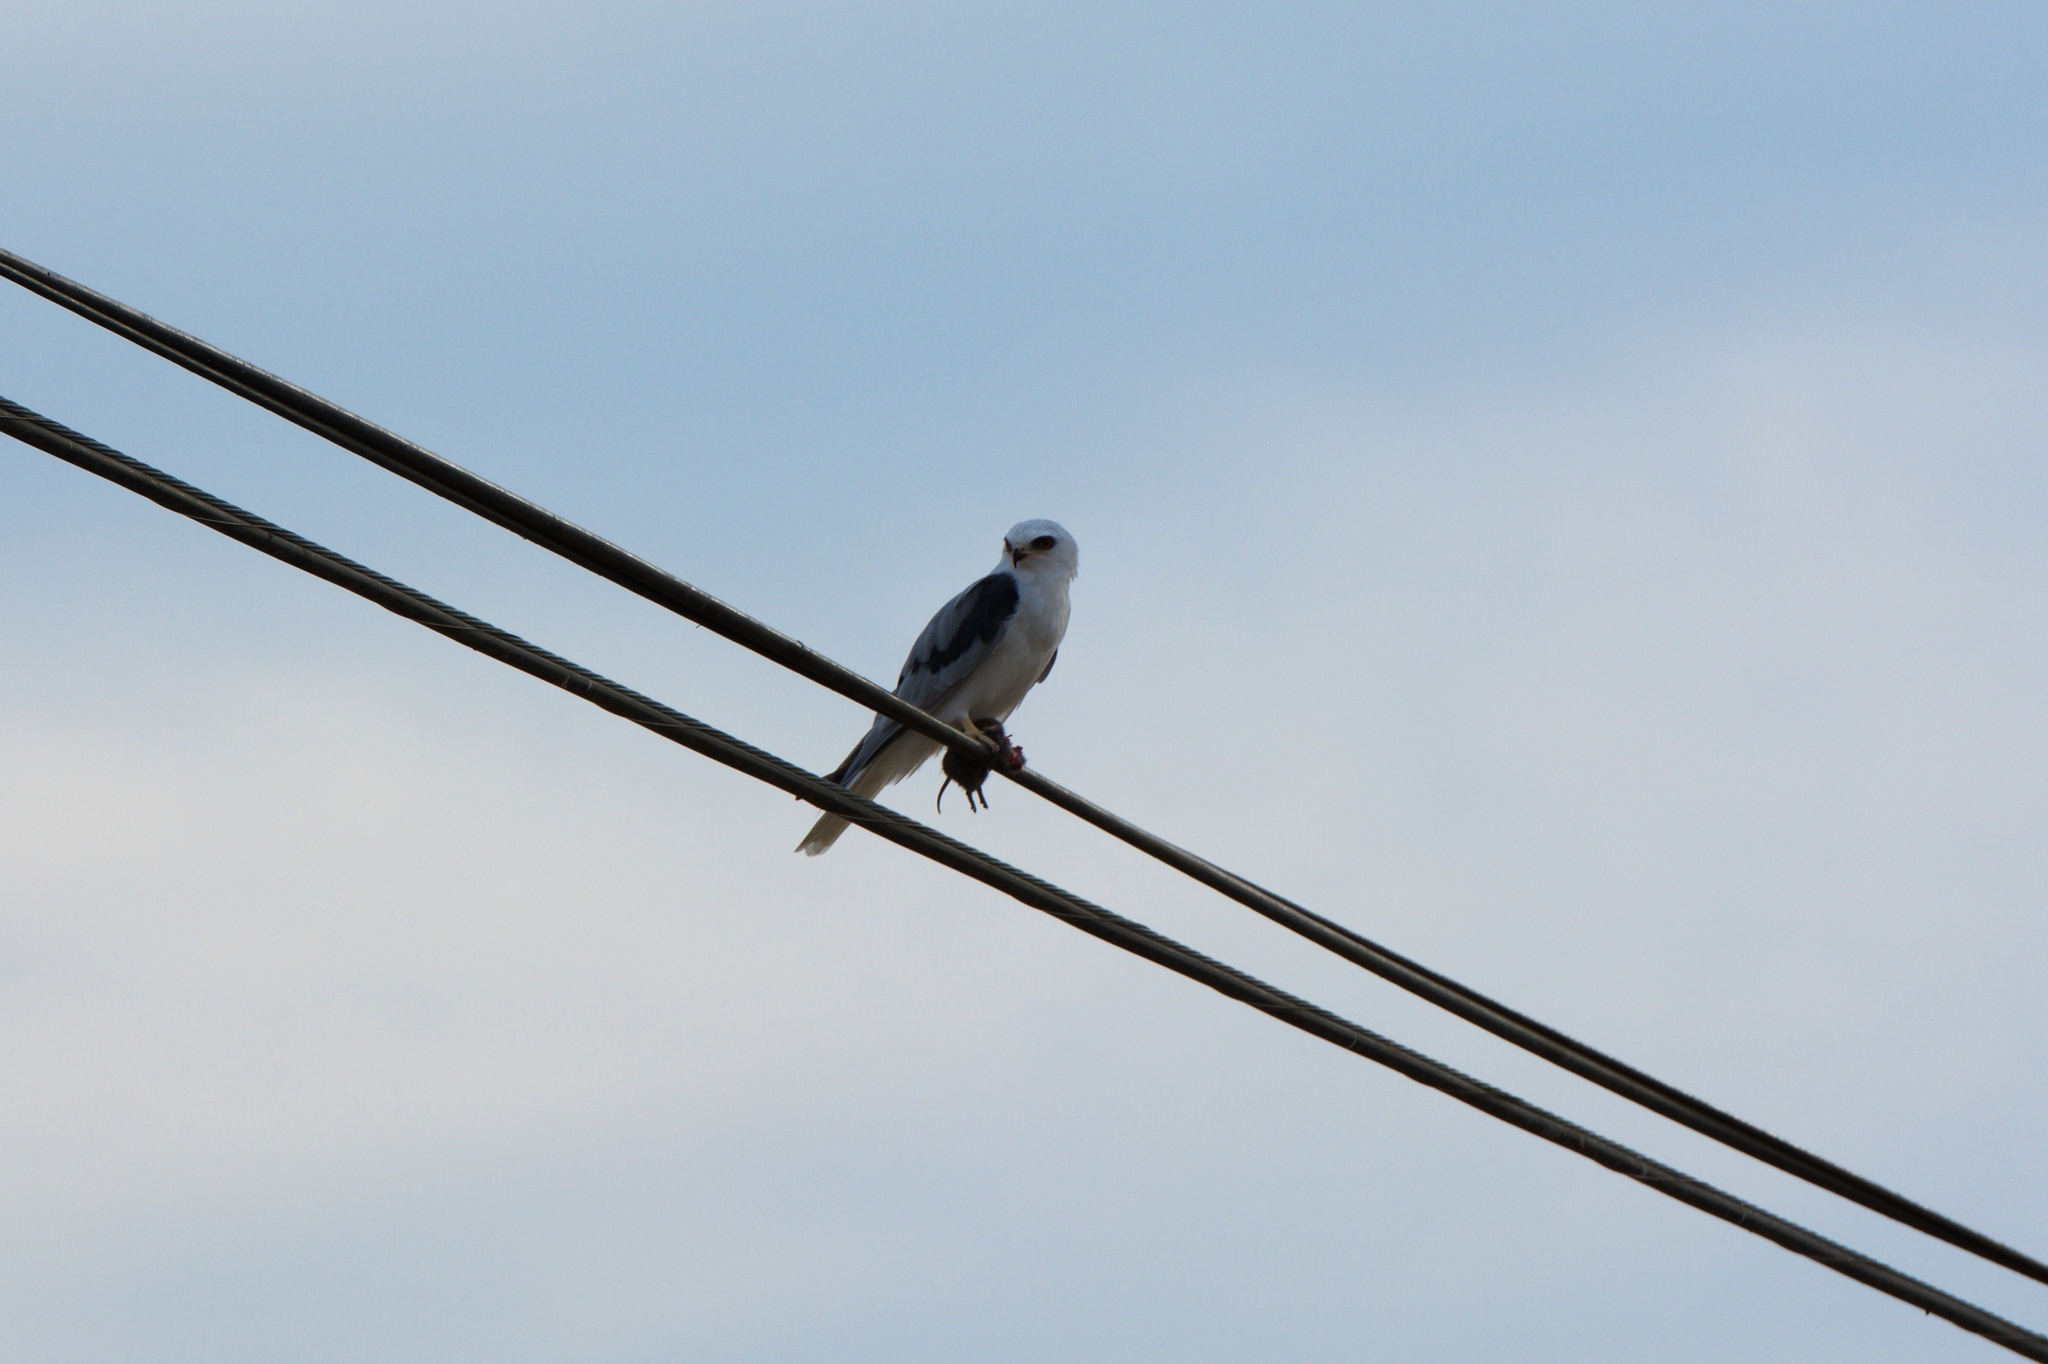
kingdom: Animalia
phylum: Chordata
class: Aves
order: Accipitriformes
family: Accipitridae
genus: Elanus
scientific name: Elanus leucurus
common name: White-tailed kite
